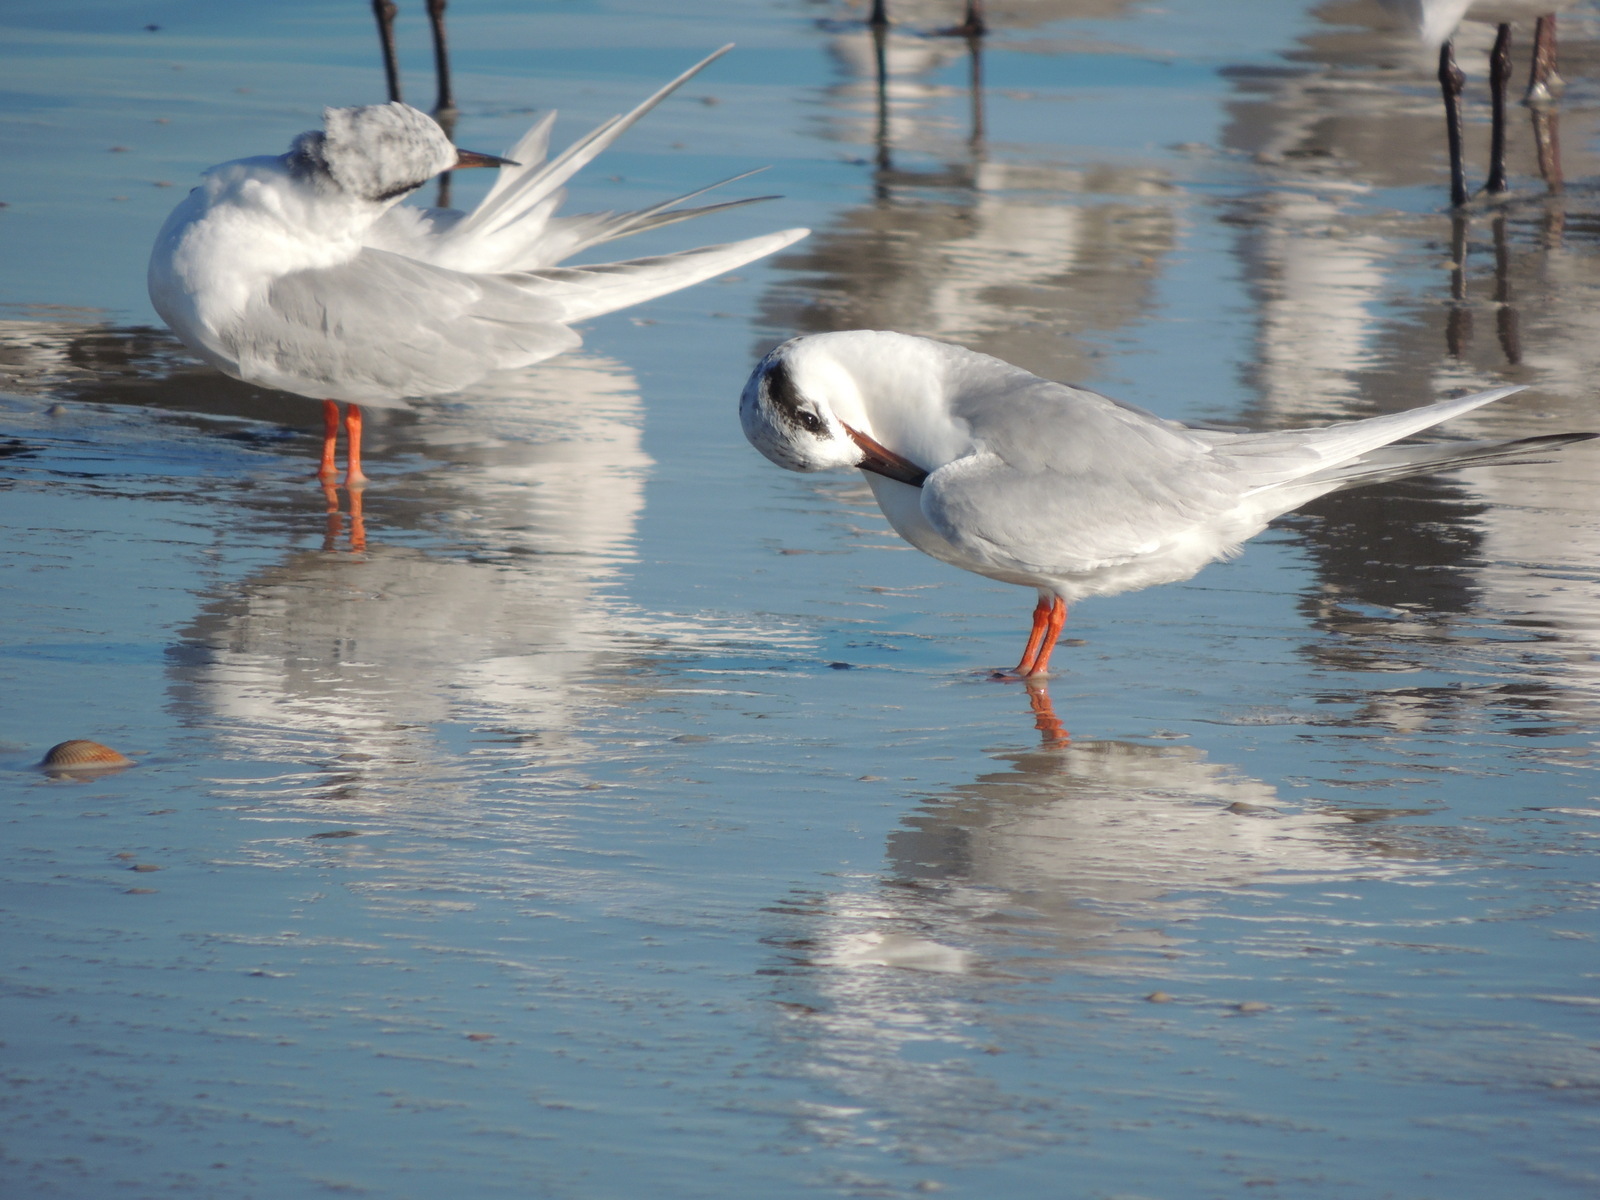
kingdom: Animalia
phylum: Chordata
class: Aves
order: Charadriiformes
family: Laridae
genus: Sterna
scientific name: Sterna forsteri
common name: Forster's tern
